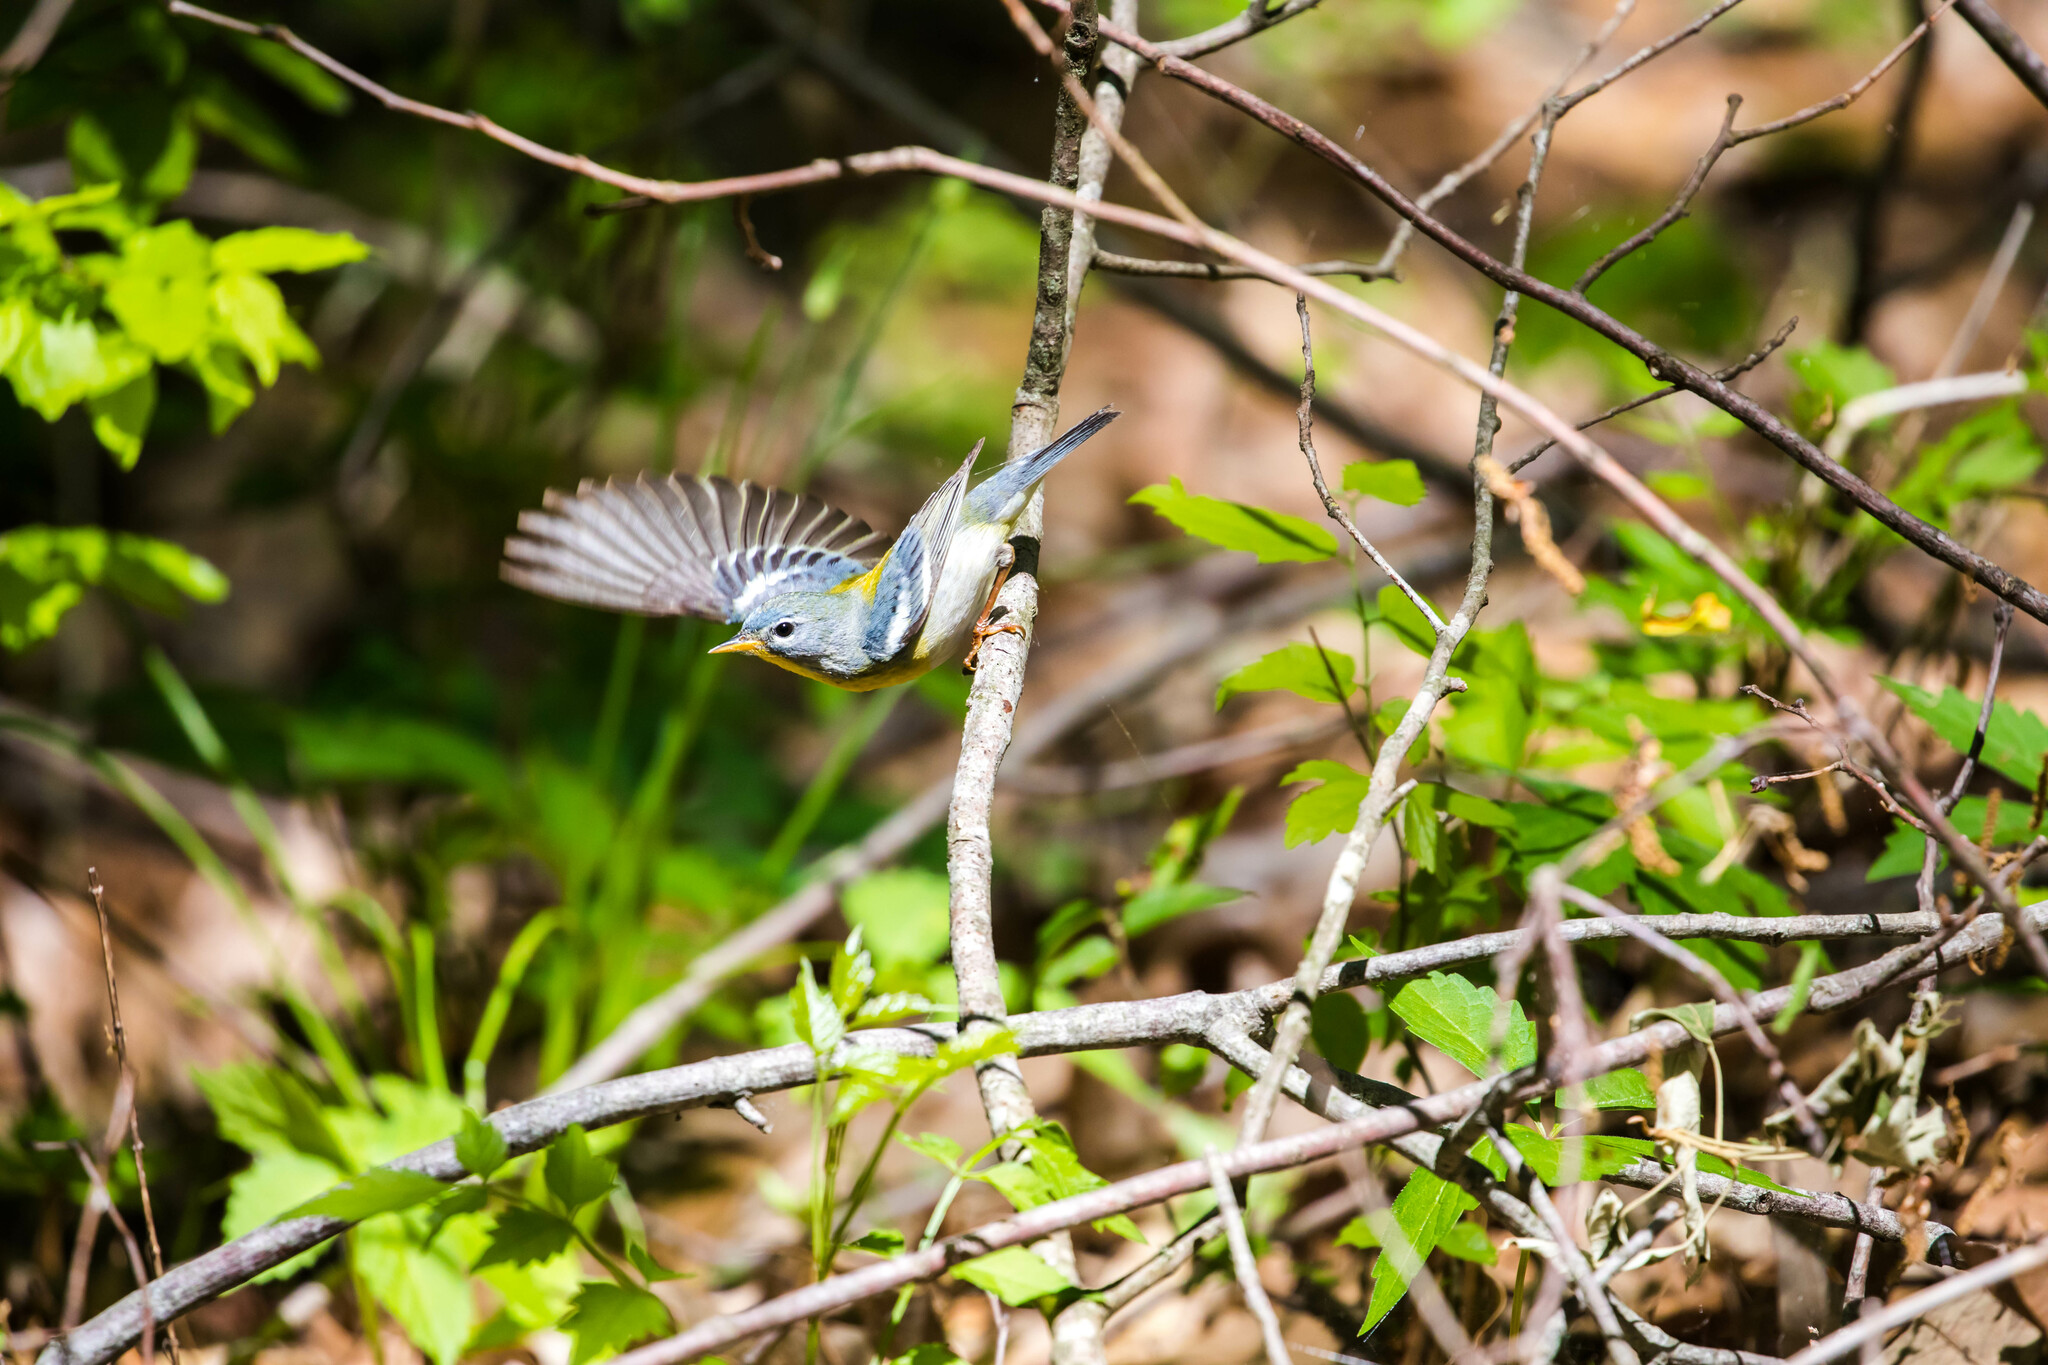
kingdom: Animalia
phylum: Chordata
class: Aves
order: Passeriformes
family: Parulidae
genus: Setophaga
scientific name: Setophaga americana
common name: Northern parula
